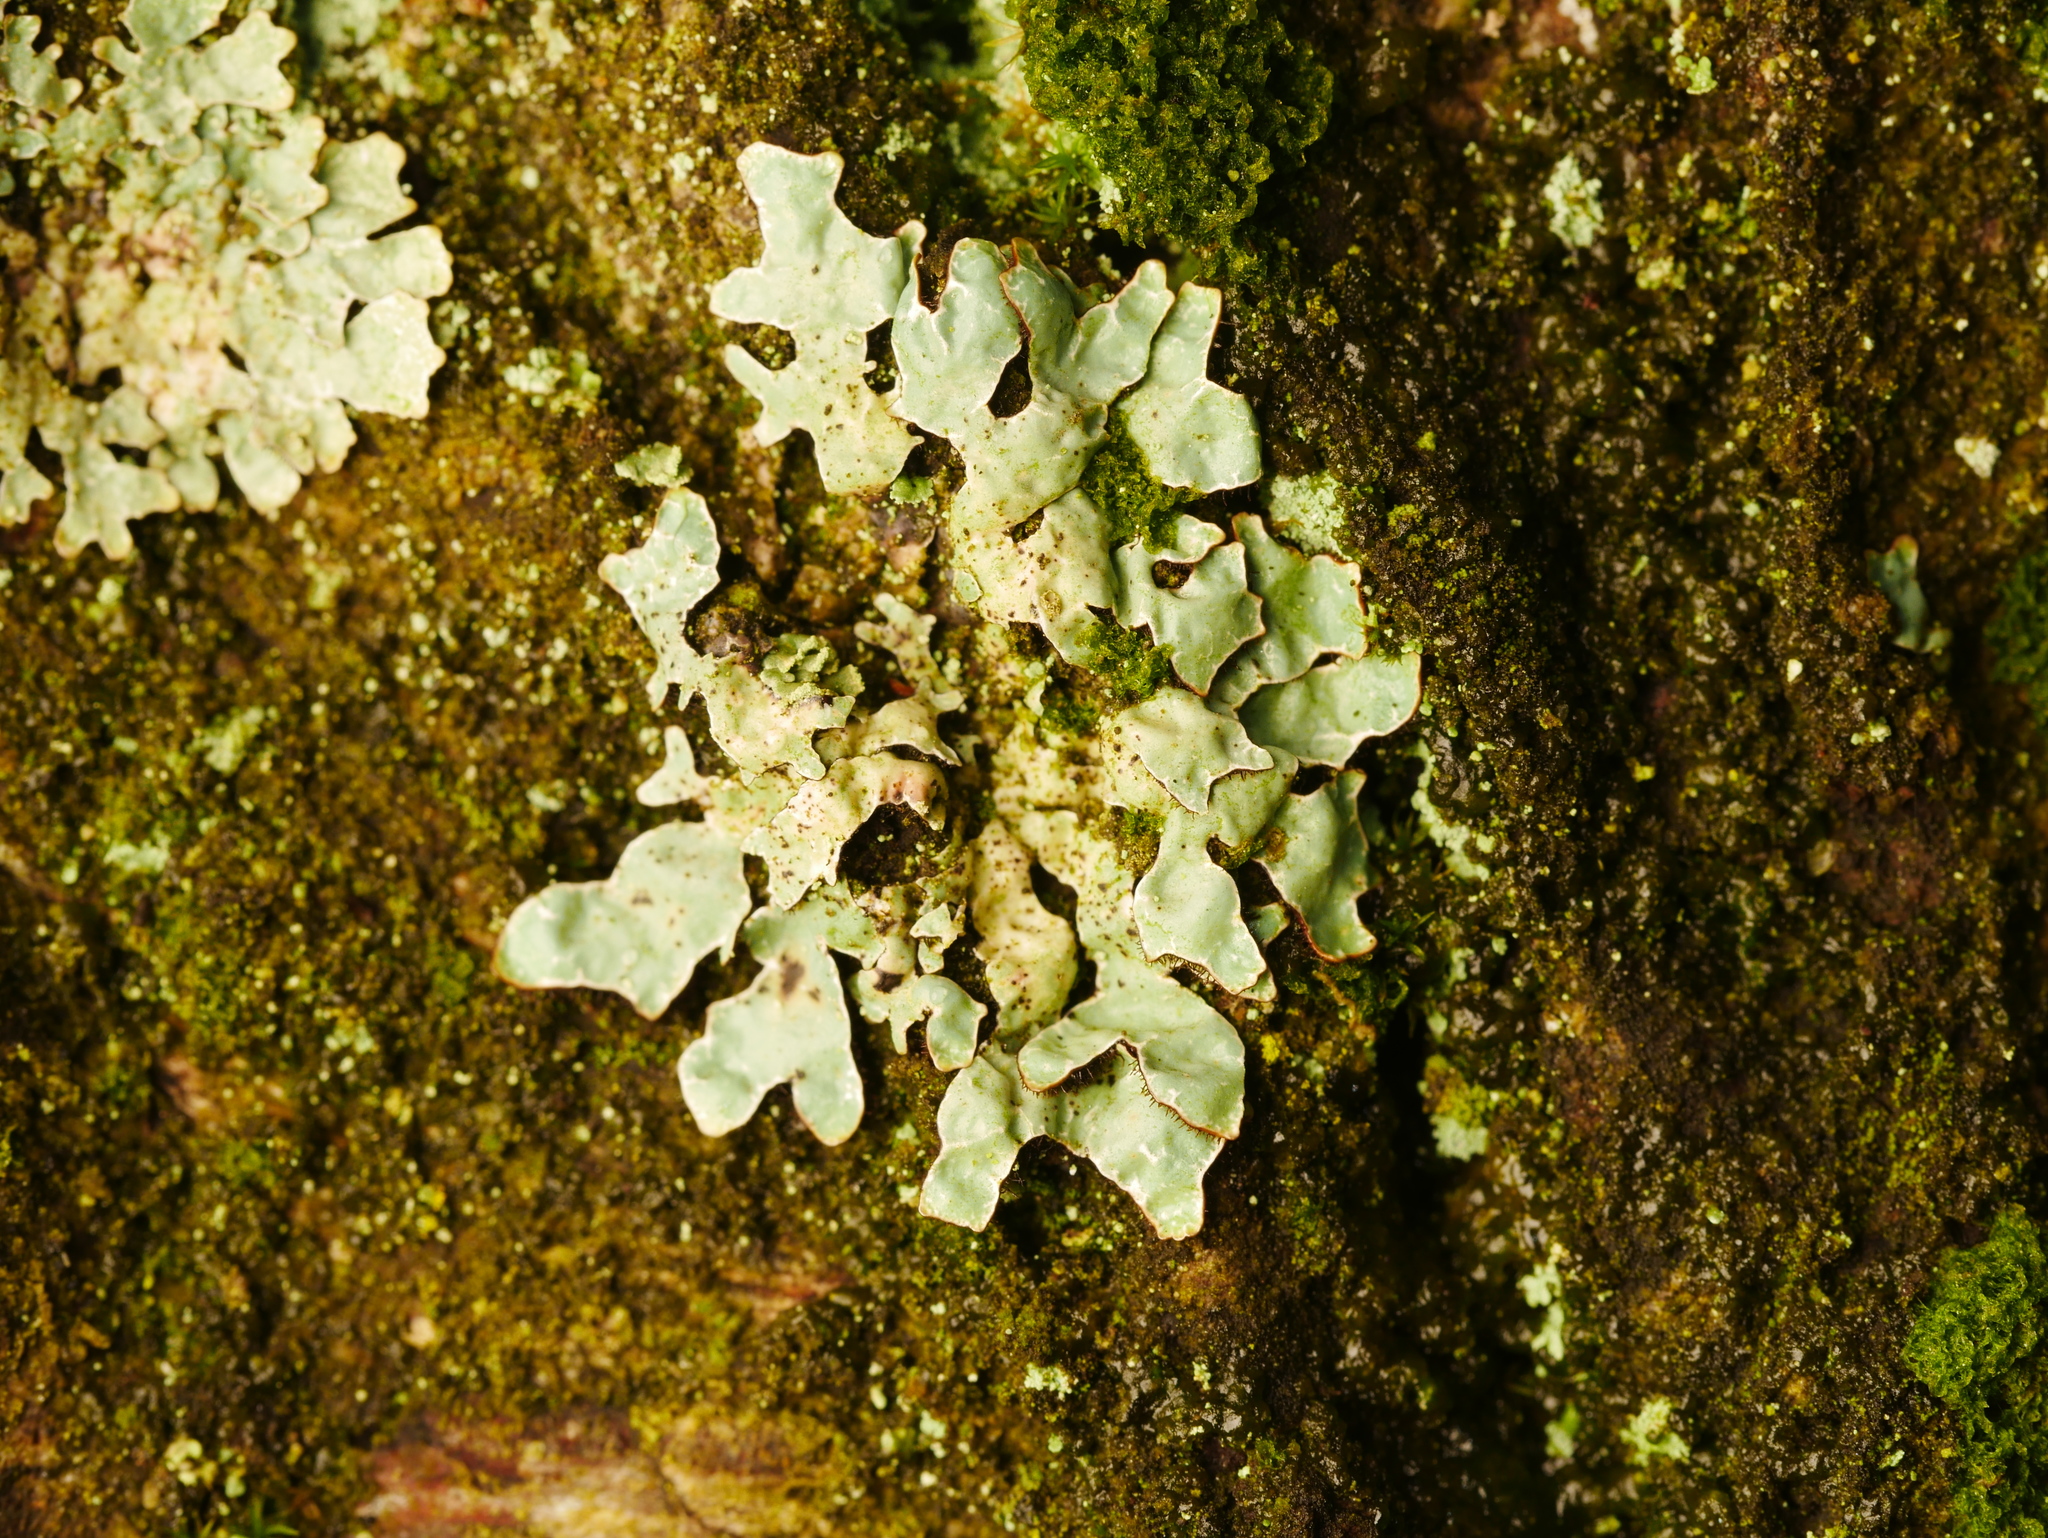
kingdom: Fungi
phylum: Ascomycota
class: Lecanoromycetes
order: Lecanorales
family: Parmeliaceae
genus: Parmelia
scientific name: Parmelia sulcata
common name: Netted shield lichen
